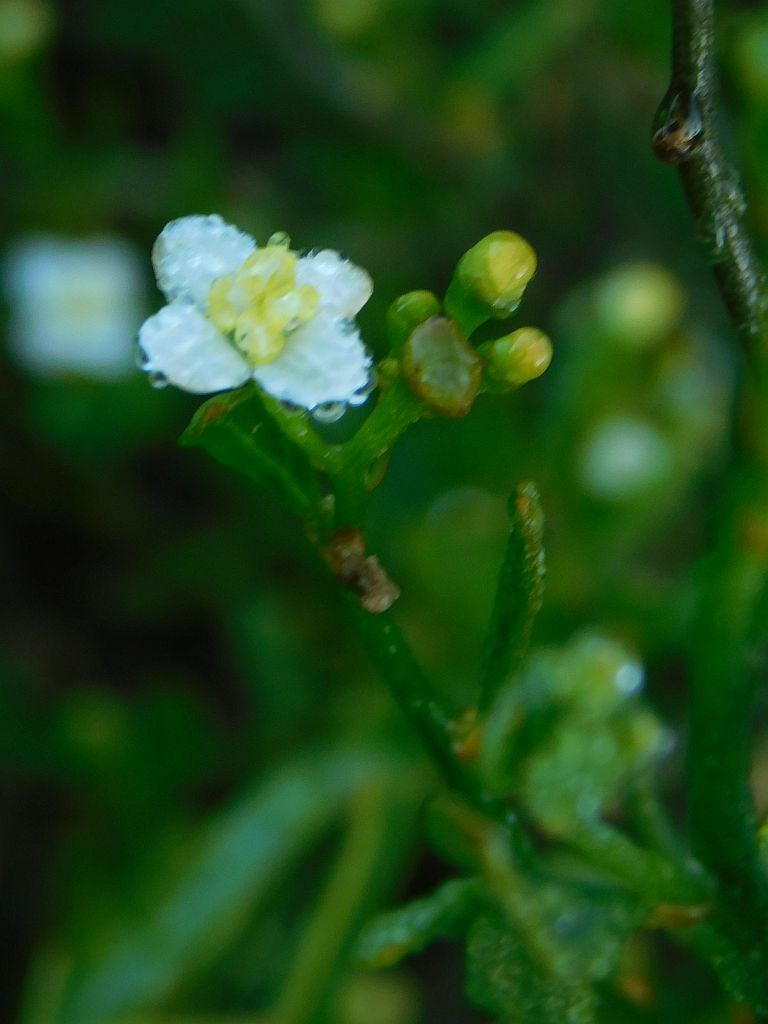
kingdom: Plantae
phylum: Tracheophyta
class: Magnoliopsida
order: Solanales
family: Montiniaceae
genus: Montinia
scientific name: Montinia caryophyllacea
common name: Wild clove-bush
